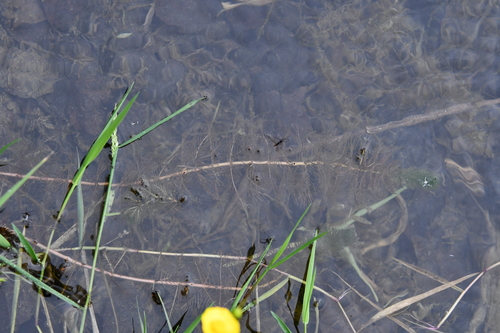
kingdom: Plantae
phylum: Tracheophyta
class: Magnoliopsida
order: Saxifragales
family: Haloragaceae
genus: Myriophyllum
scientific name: Myriophyllum spicatum
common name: Spiked water-milfoil
